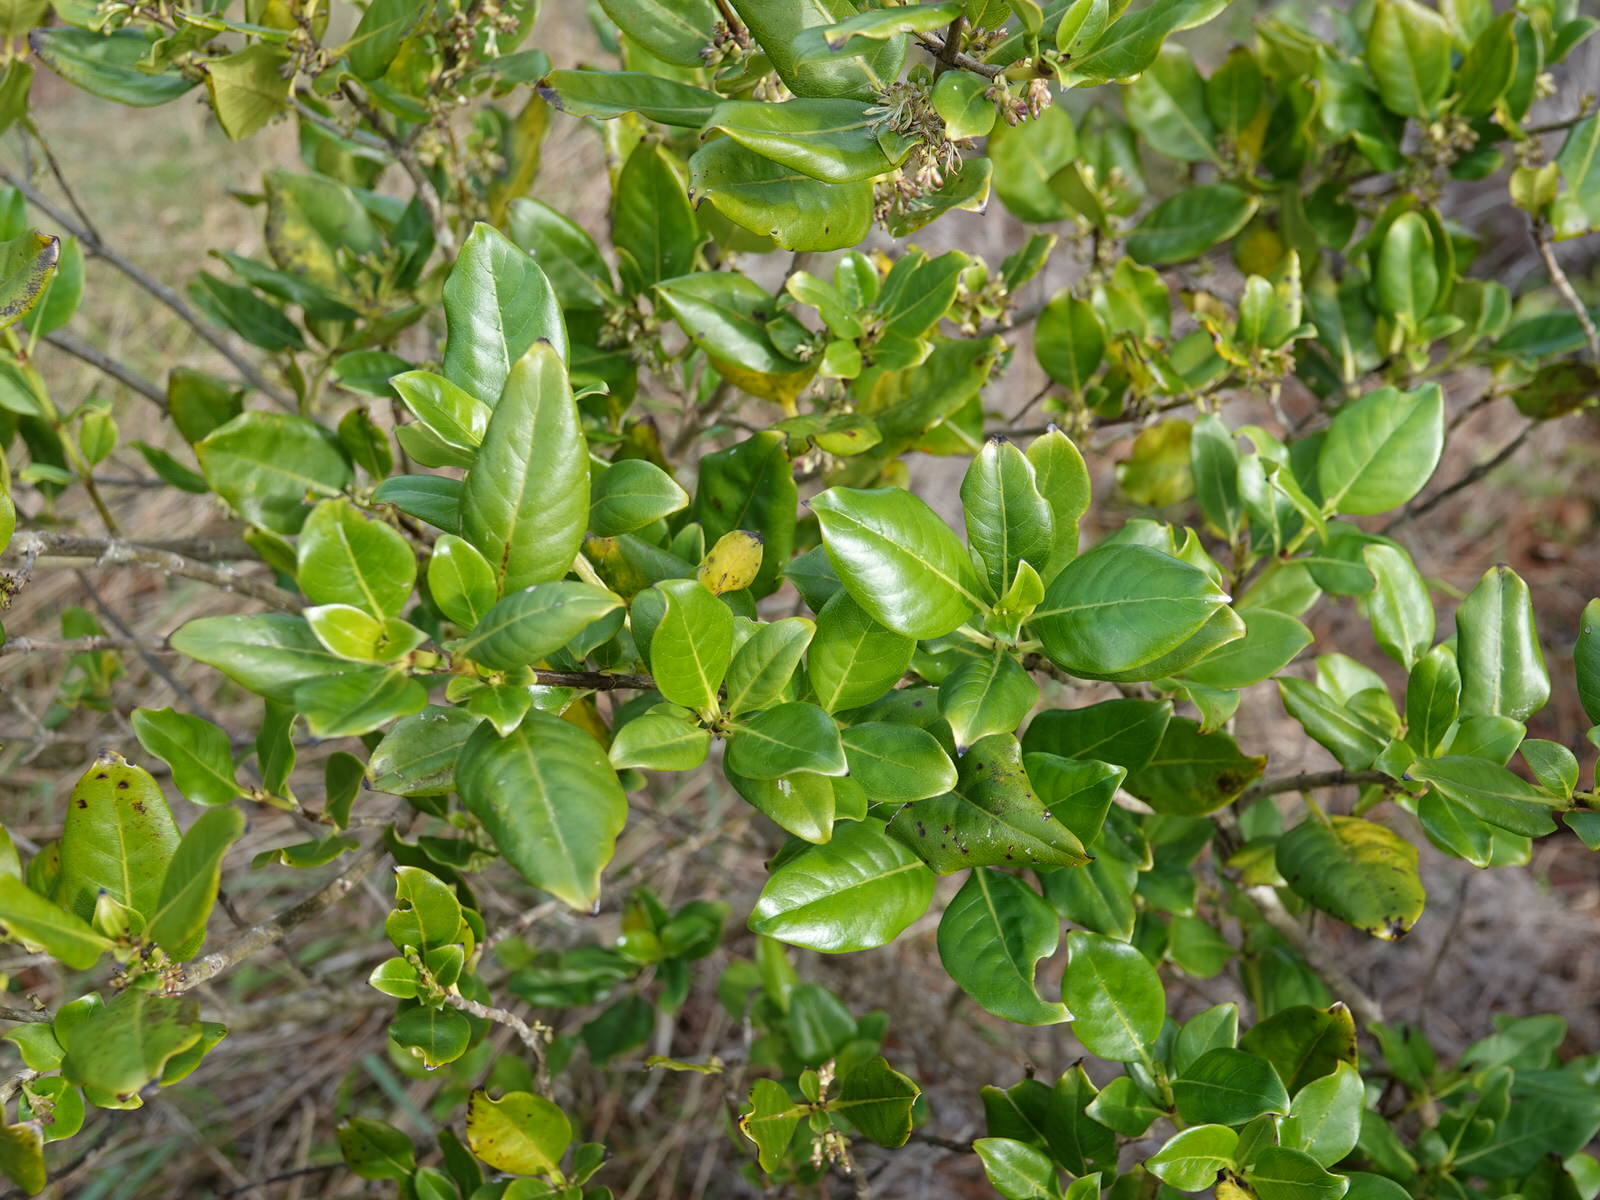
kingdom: Plantae
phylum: Tracheophyta
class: Magnoliopsida
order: Gentianales
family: Rubiaceae
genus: Coprosma
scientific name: Coprosma macrocarpa
